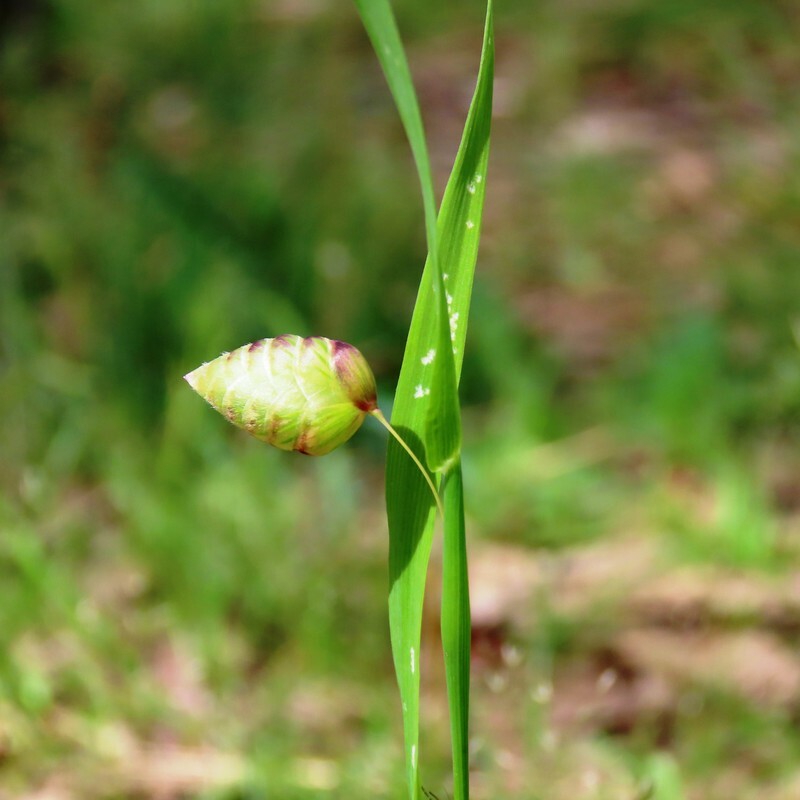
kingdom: Plantae
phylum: Tracheophyta
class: Liliopsida
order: Poales
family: Poaceae
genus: Briza
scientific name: Briza maxima
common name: Big quakinggrass
